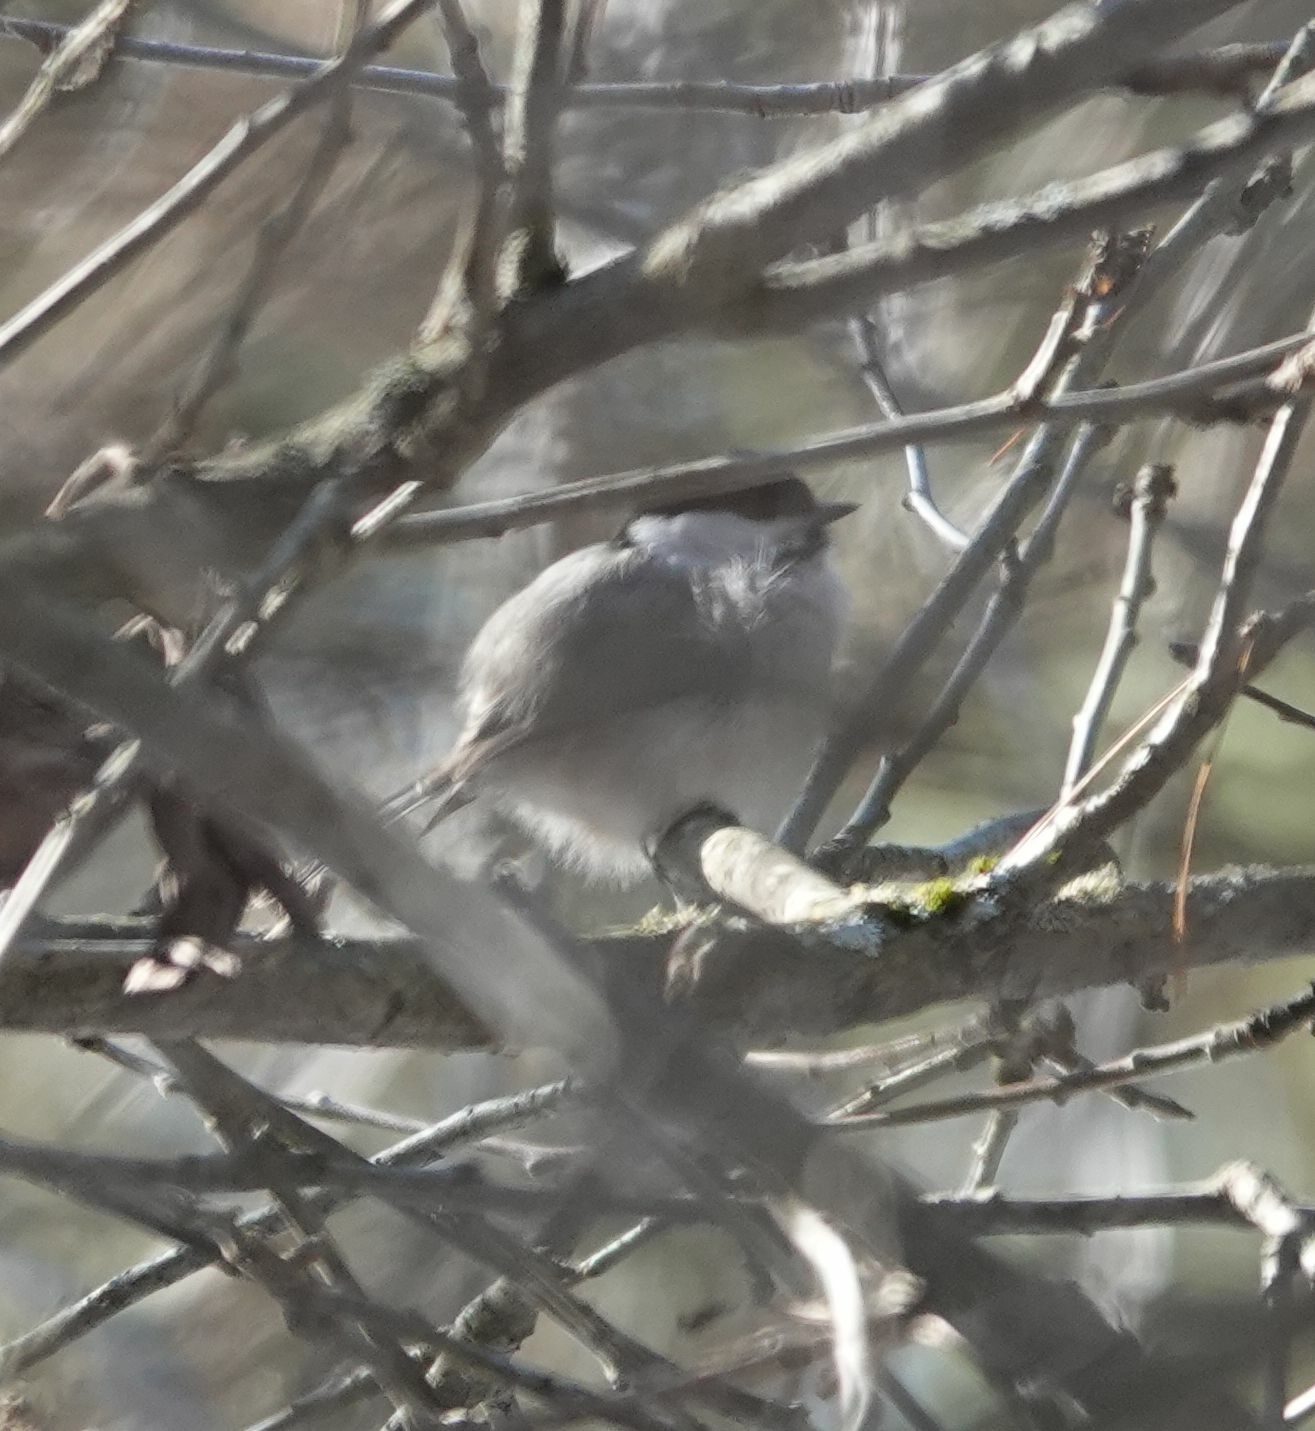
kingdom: Animalia
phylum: Chordata
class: Aves
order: Passeriformes
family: Paridae
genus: Poecile
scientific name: Poecile montanus
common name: Willow tit
